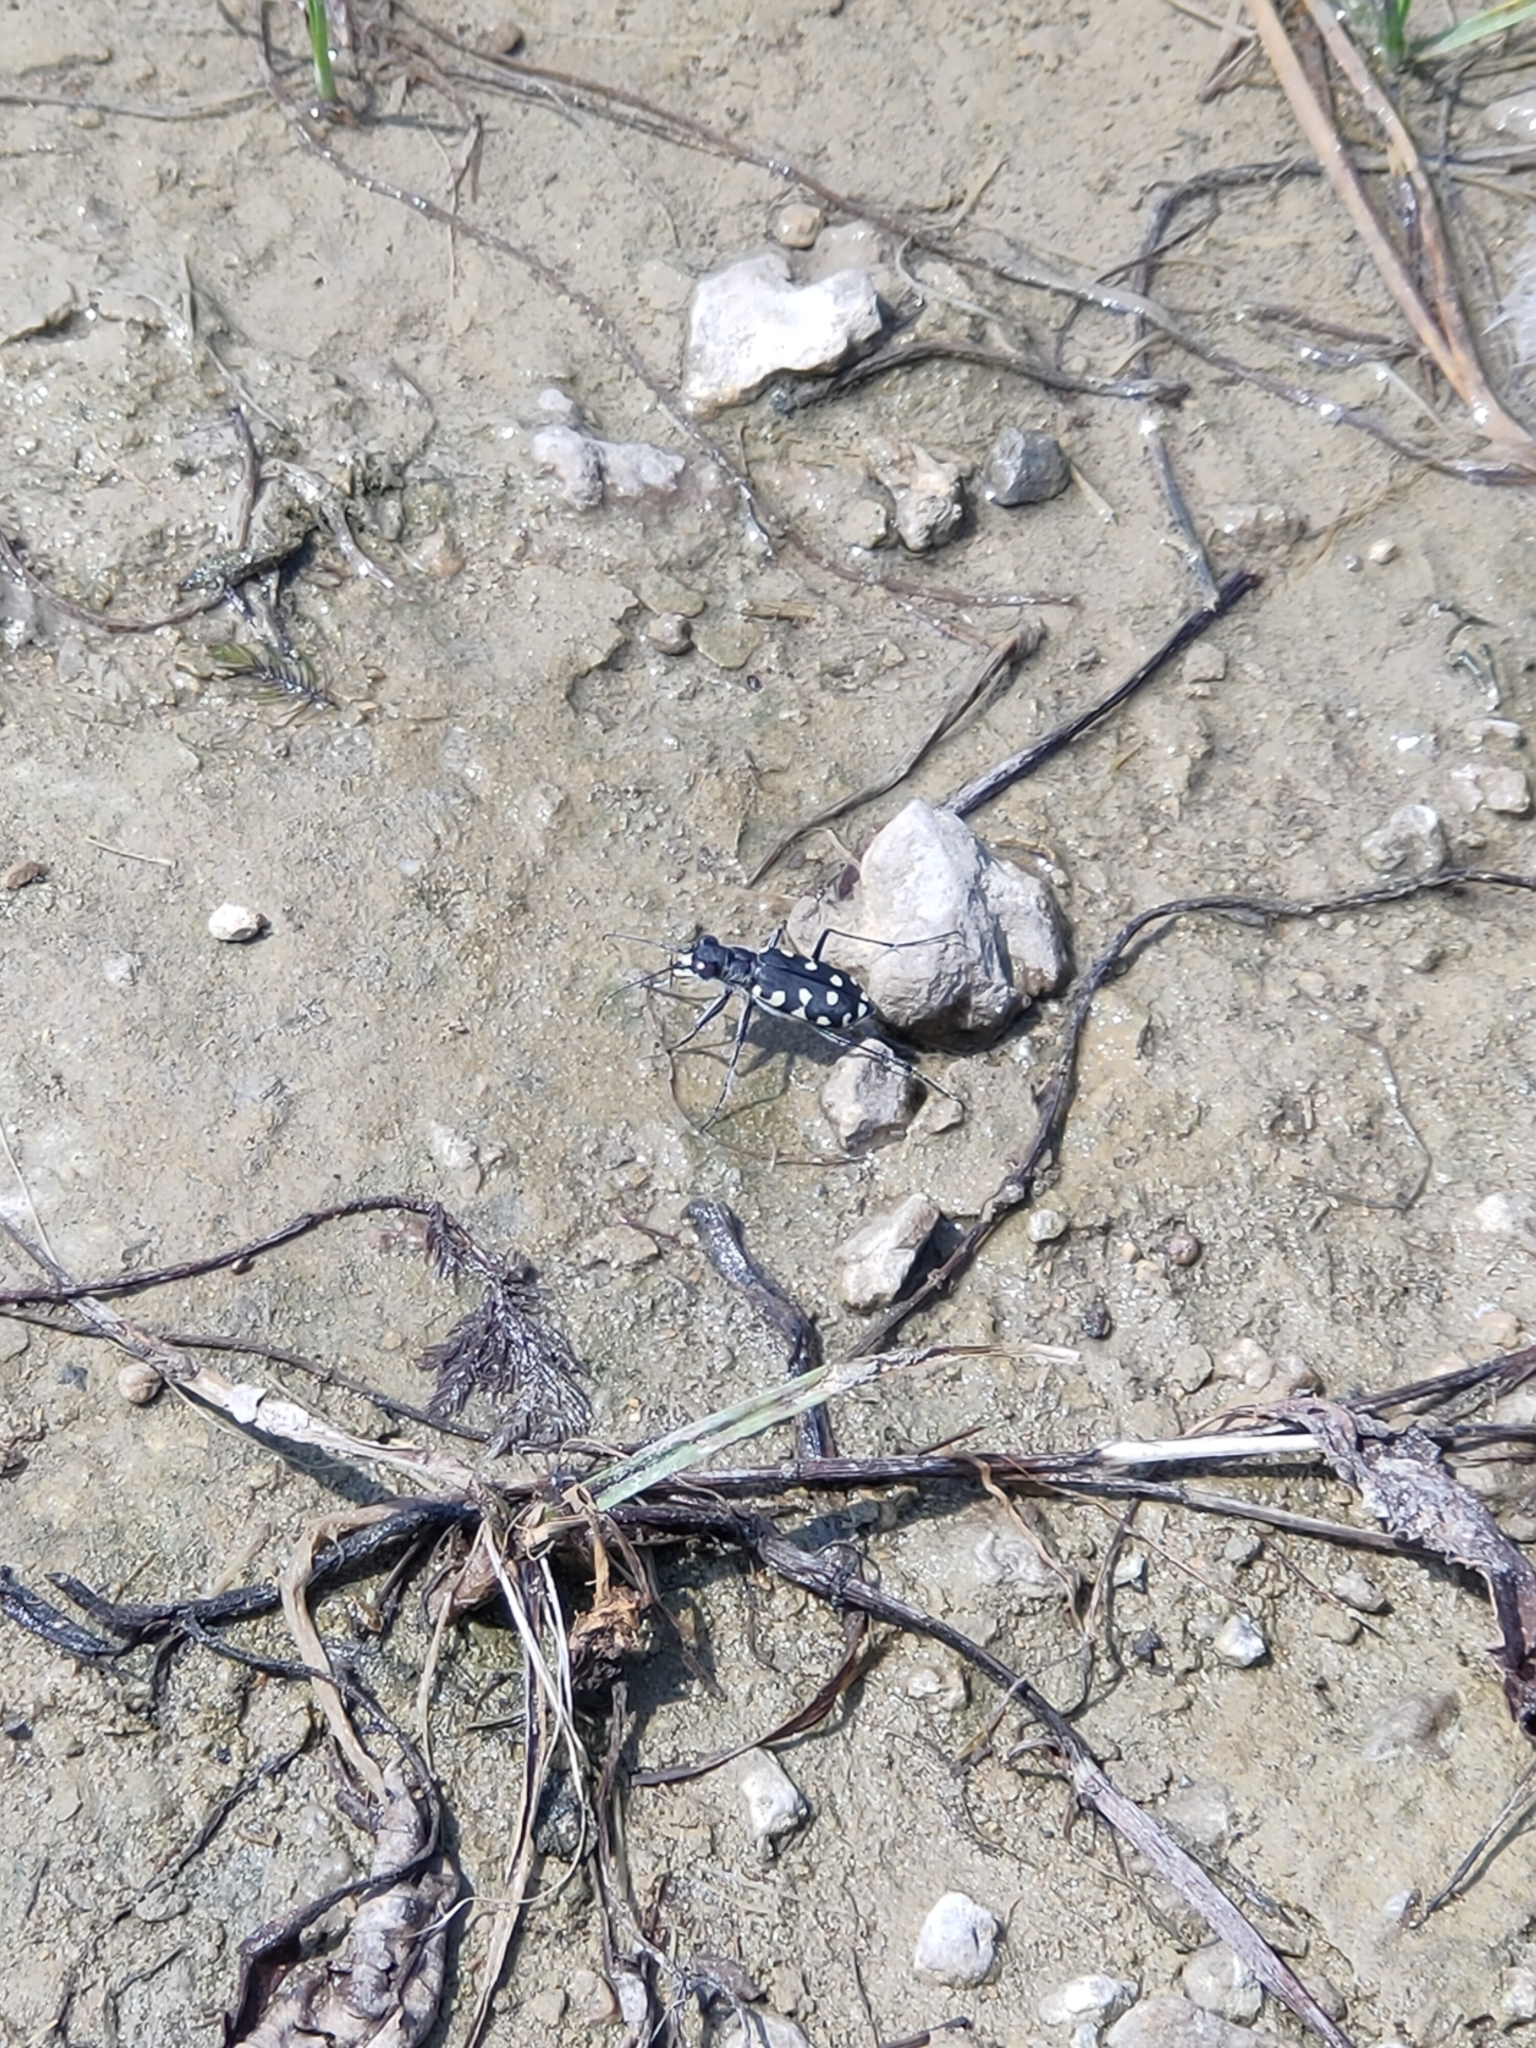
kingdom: Animalia
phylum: Arthropoda
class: Insecta
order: Coleoptera
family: Carabidae
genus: Cicindela
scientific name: Cicindela littoralis
